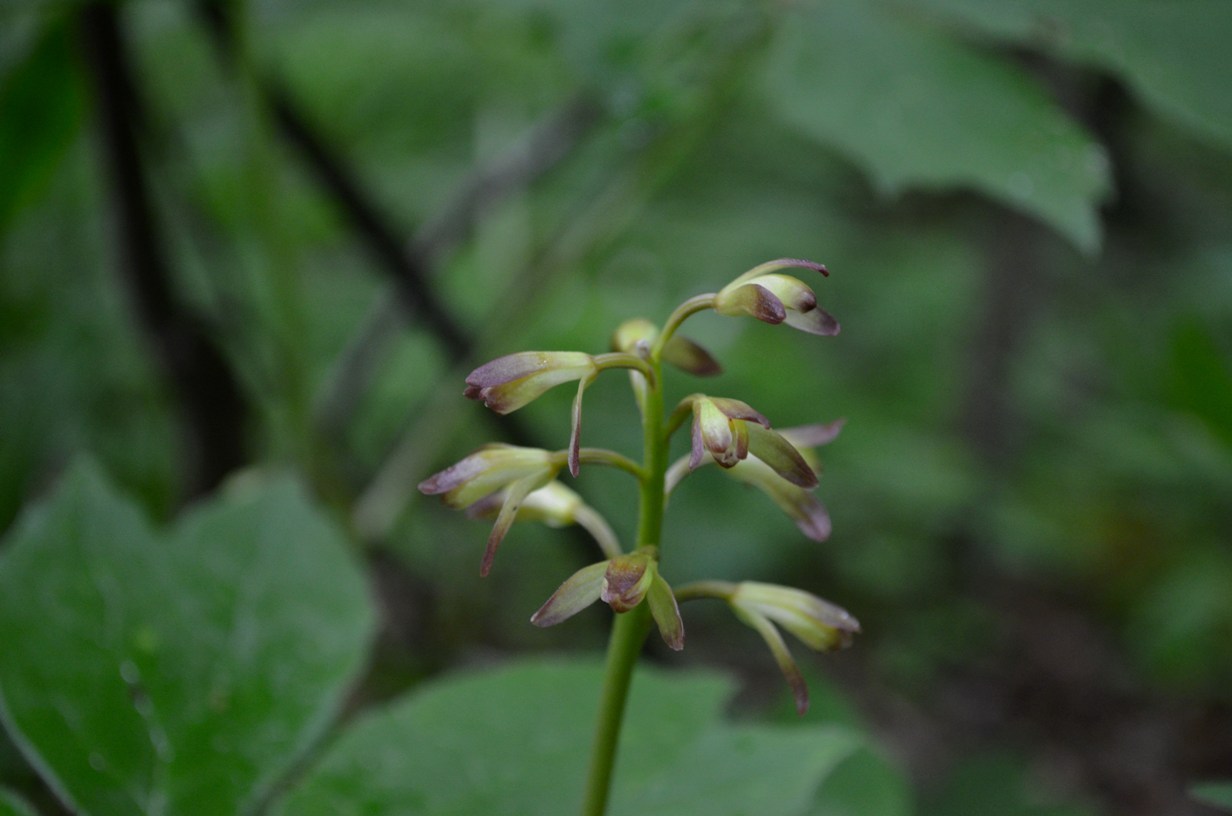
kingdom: Plantae
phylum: Tracheophyta
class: Liliopsida
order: Asparagales
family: Orchidaceae
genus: Aplectrum
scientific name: Aplectrum hyemale
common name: Adam-and-eve
